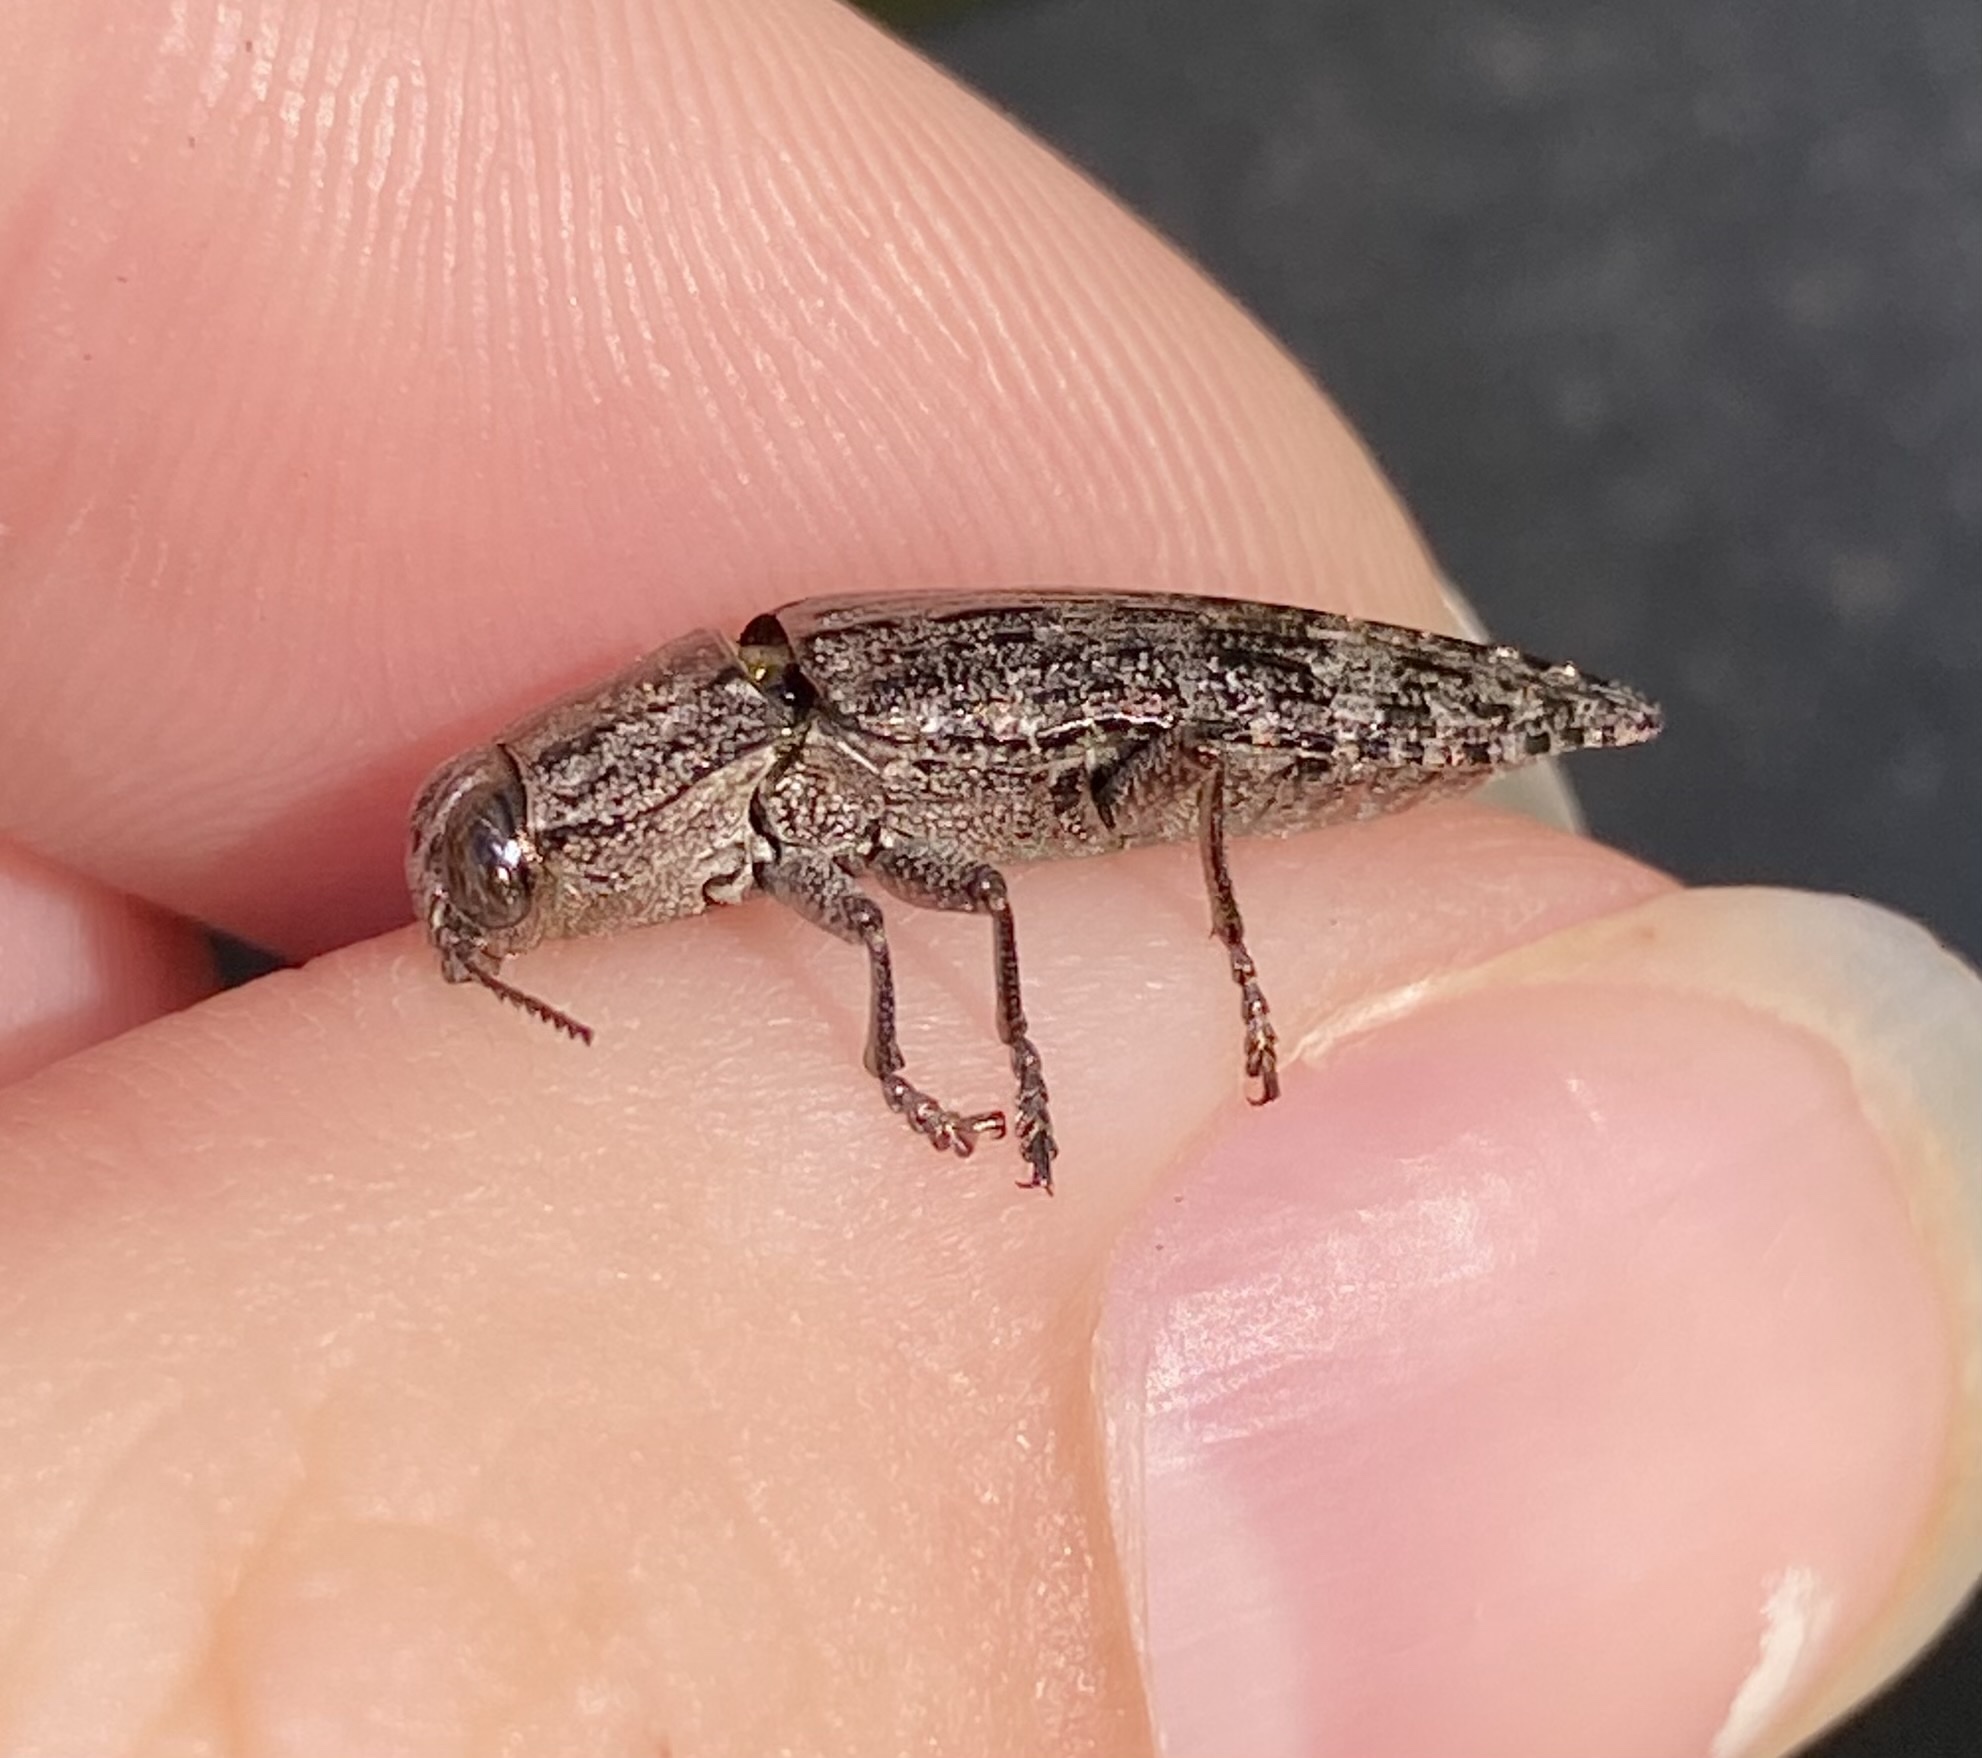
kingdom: Animalia
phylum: Arthropoda
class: Insecta
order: Coleoptera
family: Buprestidae
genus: Dicerca
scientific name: Dicerca obscura
